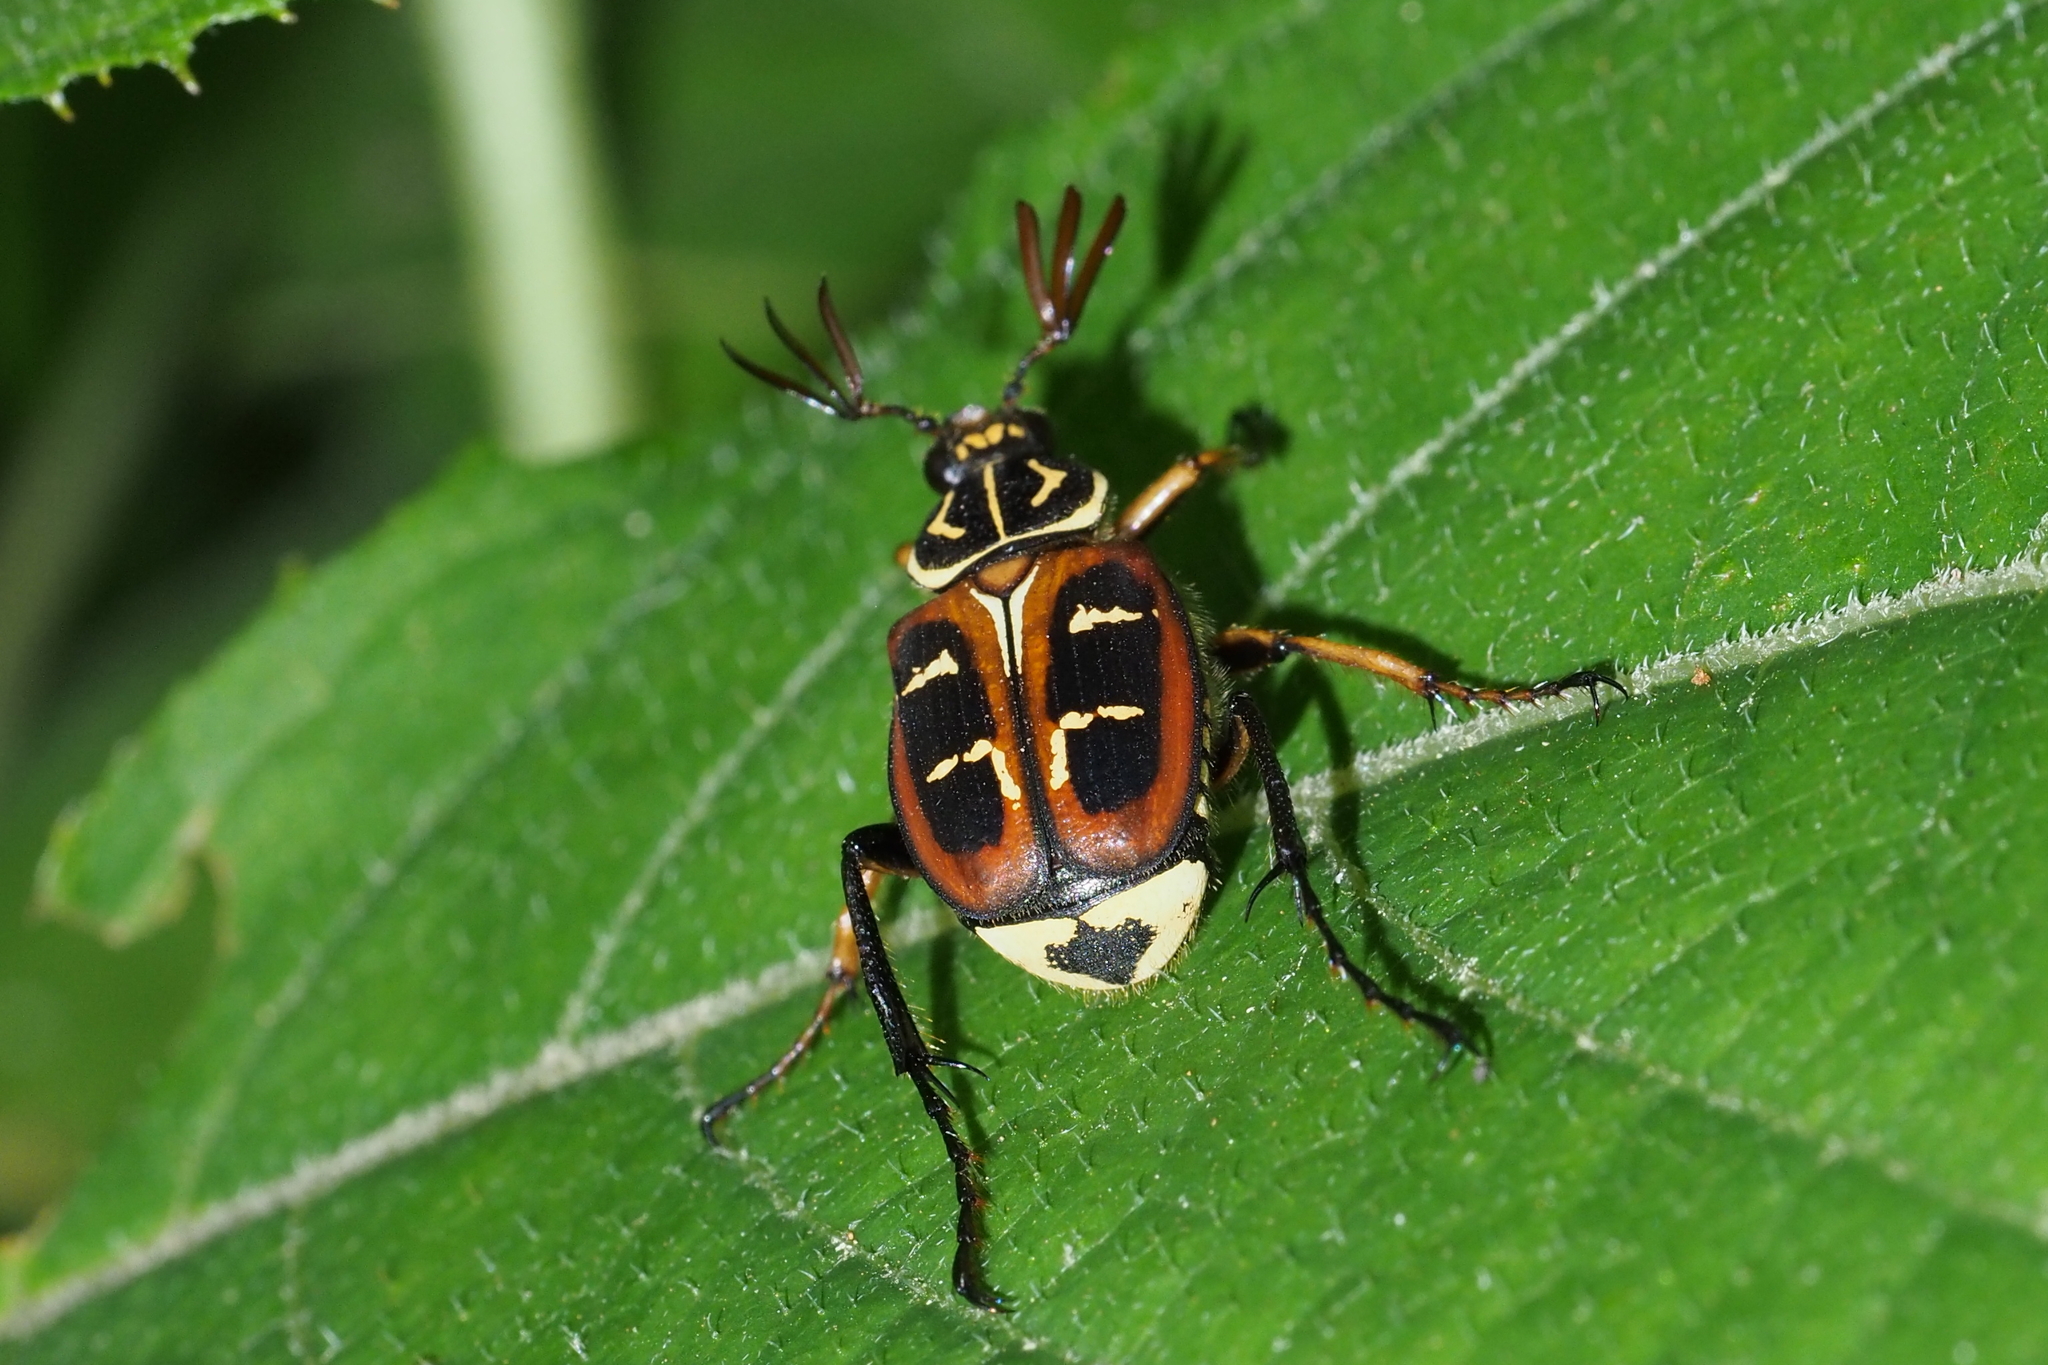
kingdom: Animalia
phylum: Arthropoda
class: Insecta
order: Coleoptera
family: Scarabaeidae
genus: Paratrichius
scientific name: Paratrichius doenitzi
